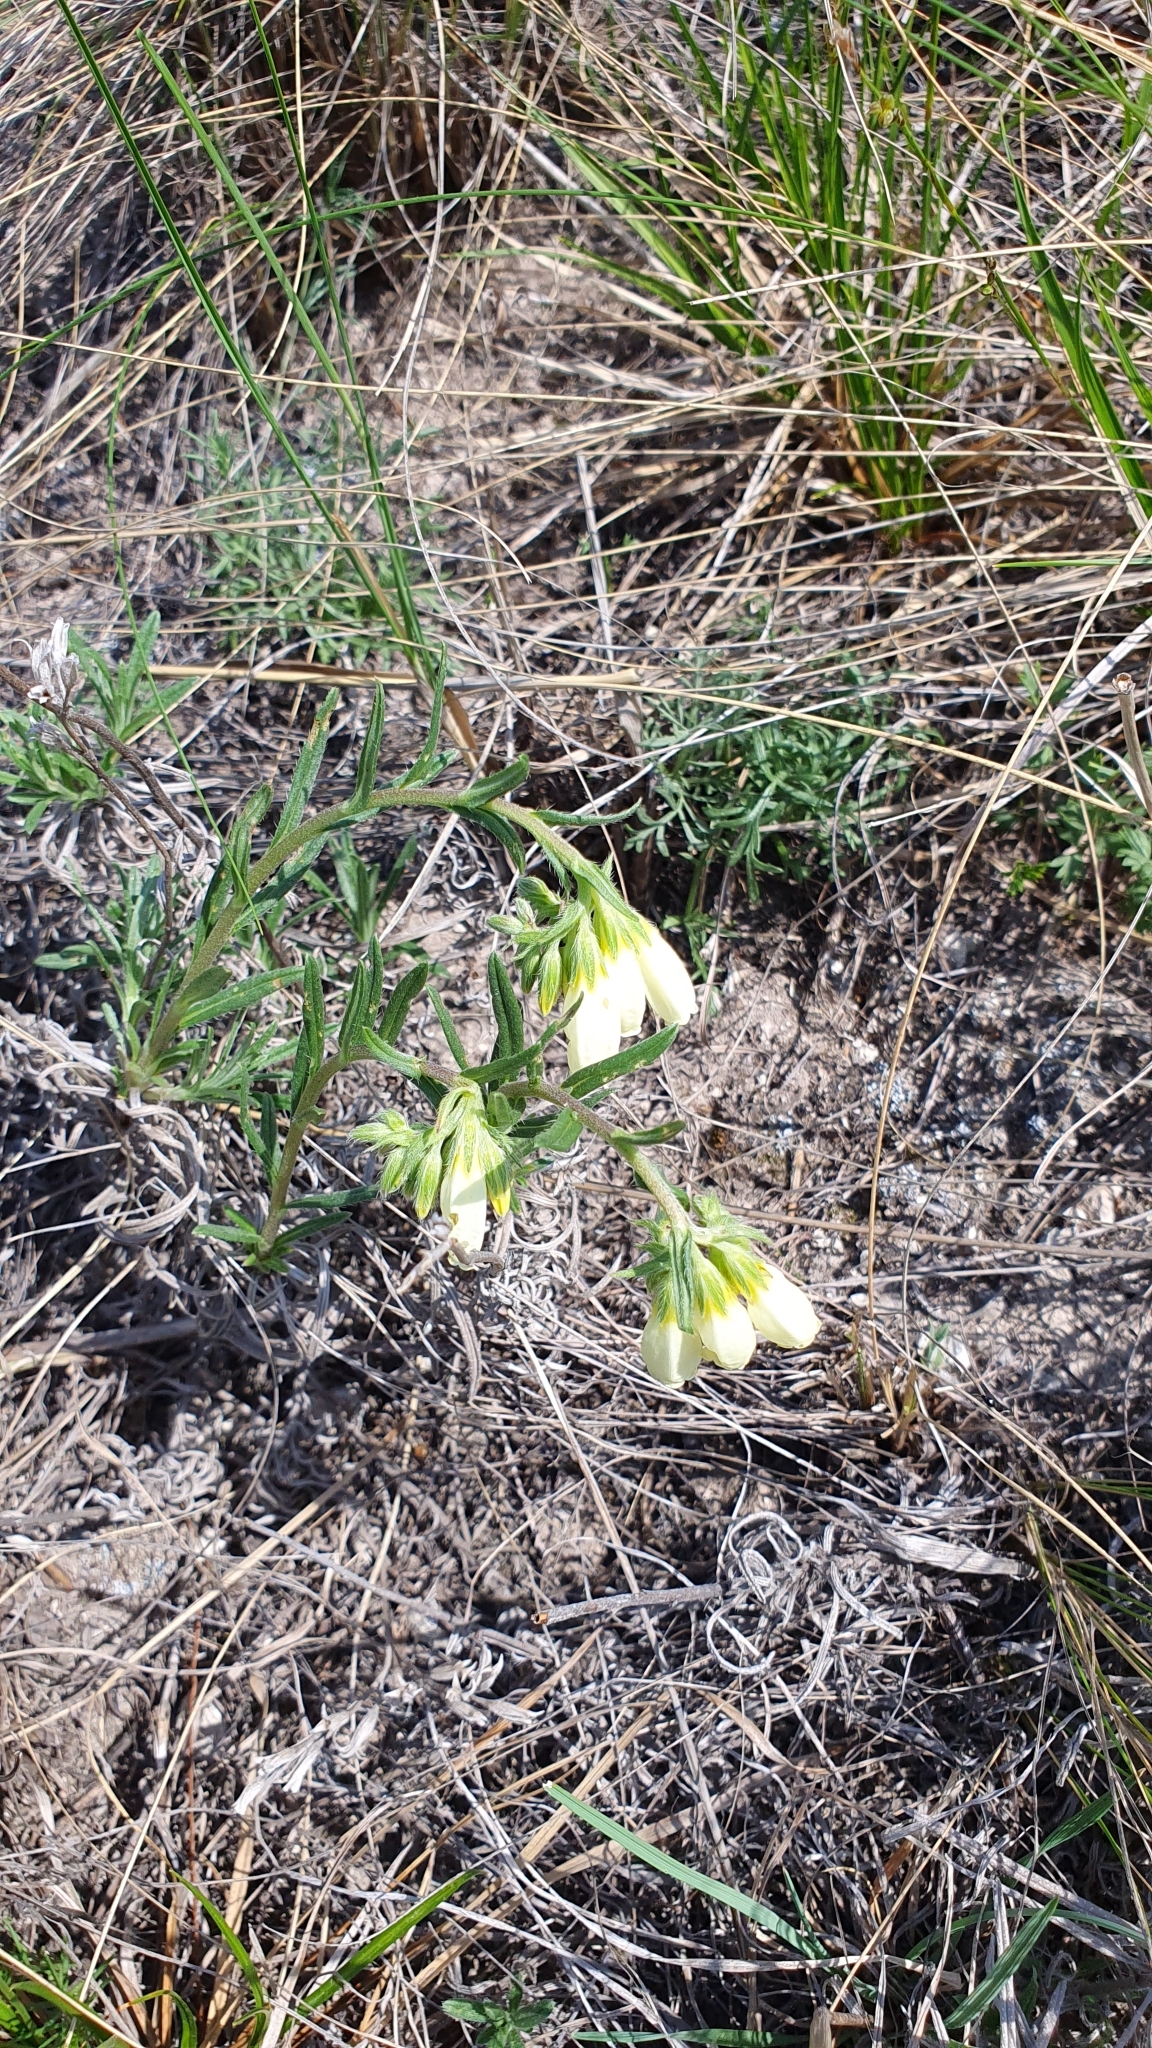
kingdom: Plantae
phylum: Tracheophyta
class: Magnoliopsida
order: Boraginales
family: Boraginaceae
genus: Onosma
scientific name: Onosma simplicissima
